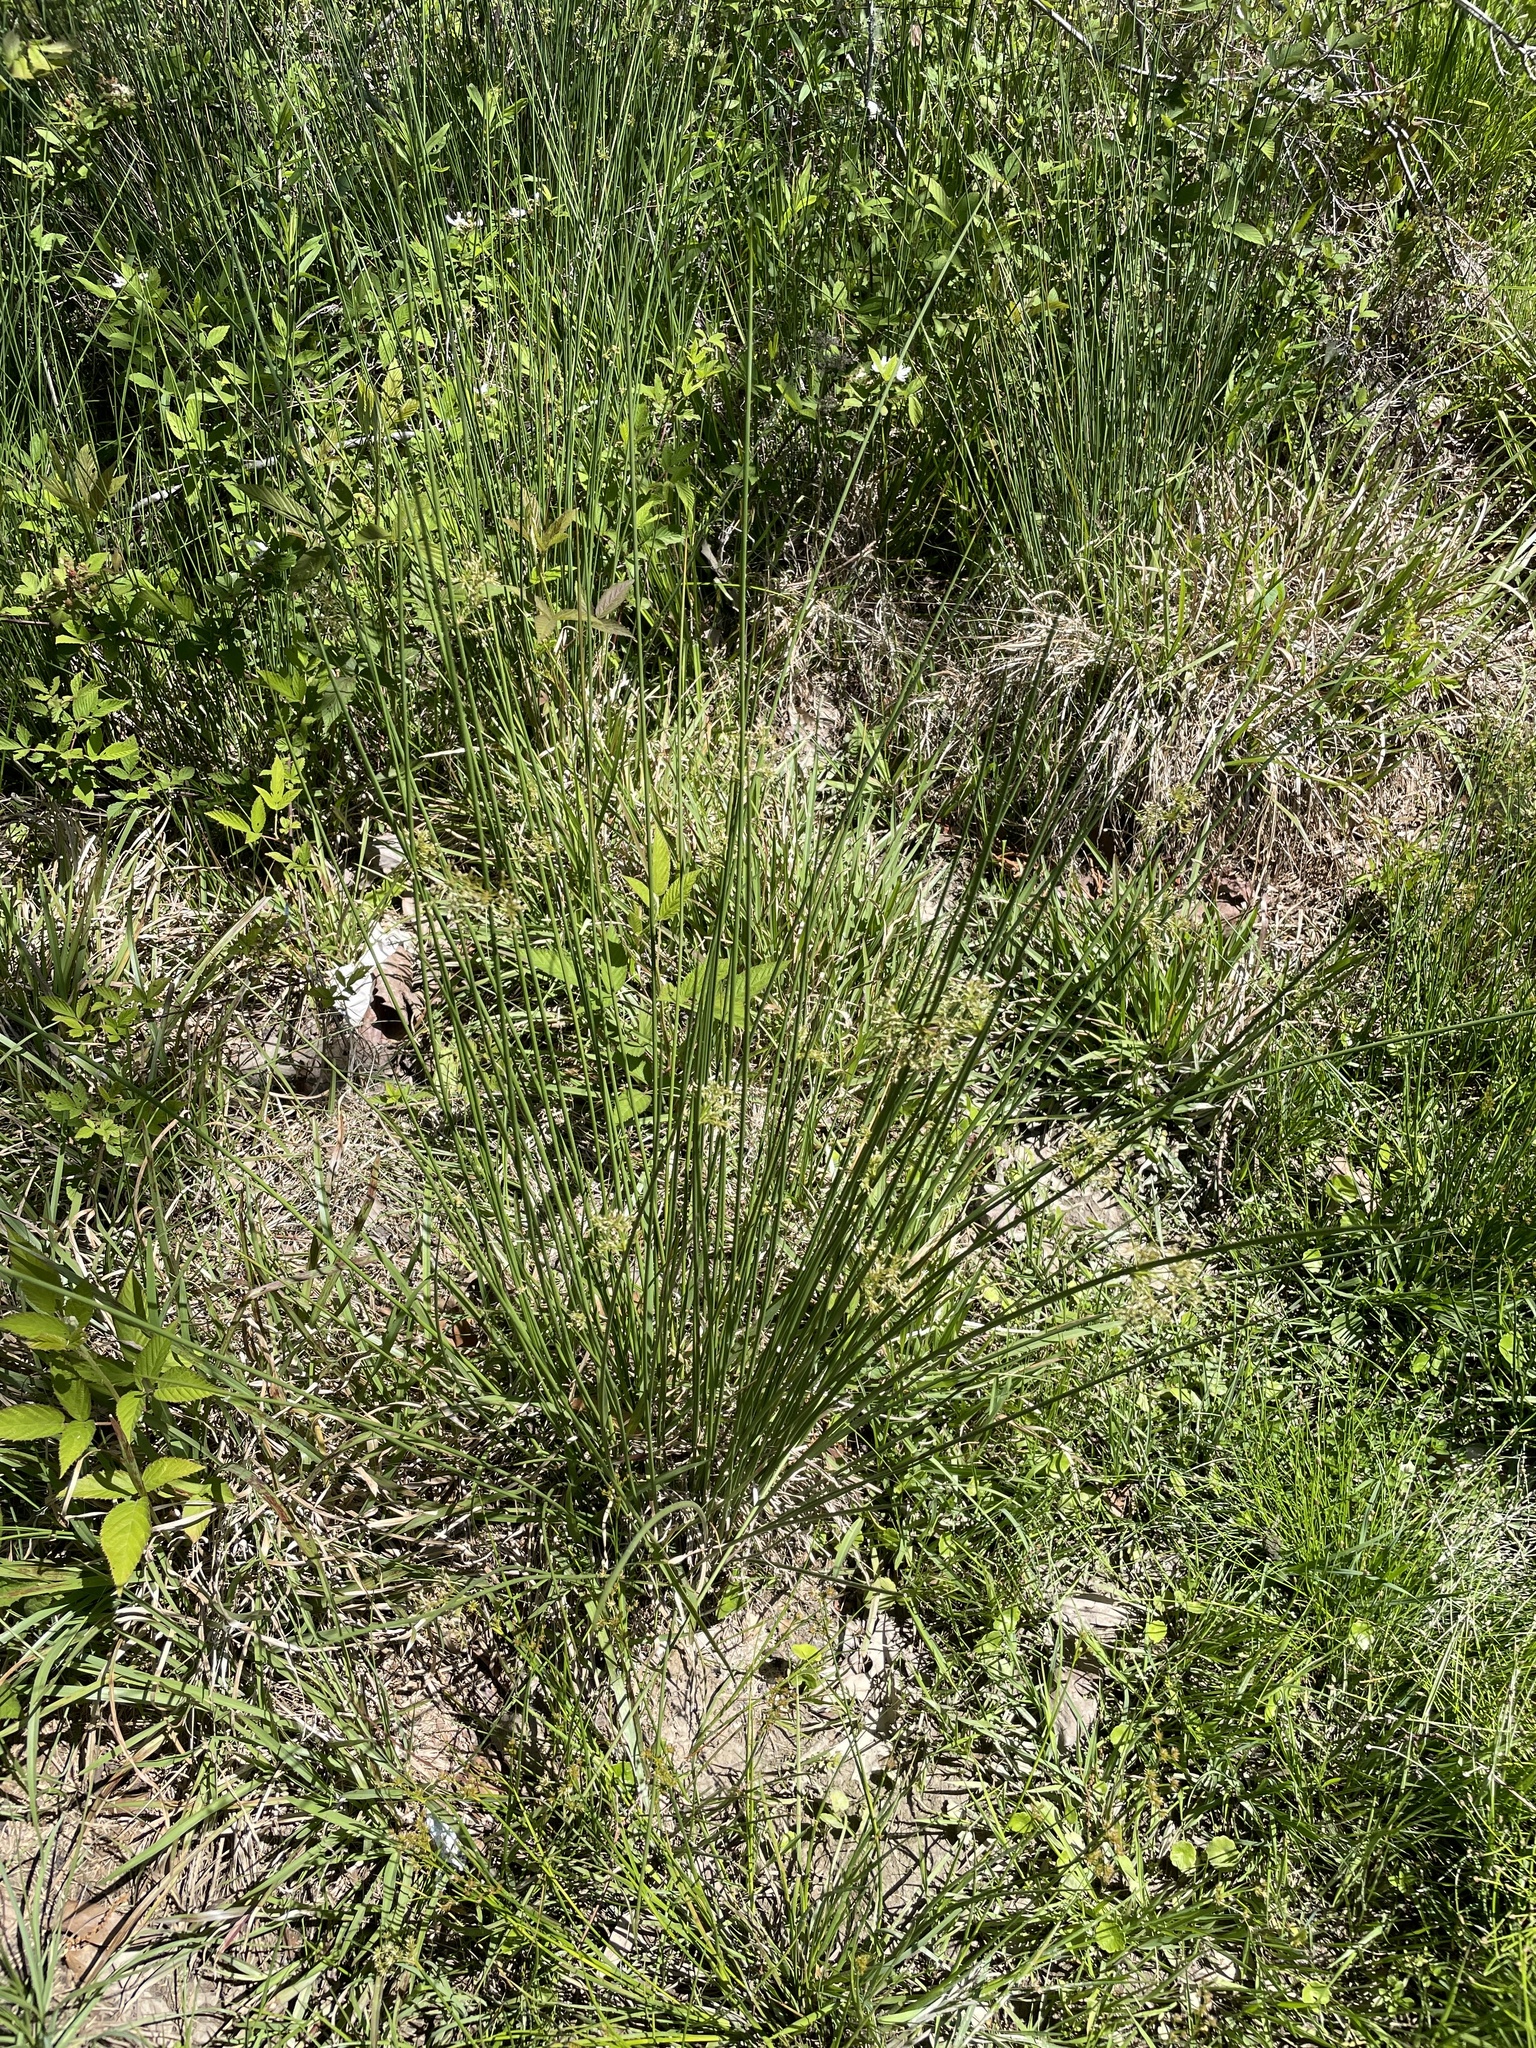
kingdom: Plantae
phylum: Tracheophyta
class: Liliopsida
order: Poales
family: Juncaceae
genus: Juncus
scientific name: Juncus effusus
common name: Soft rush
